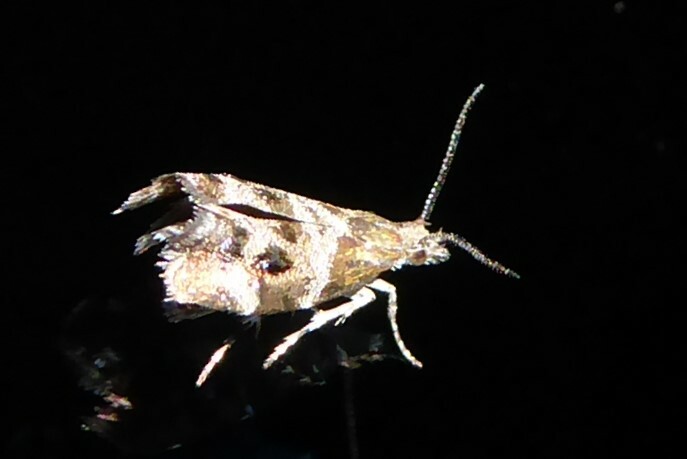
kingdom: Animalia
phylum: Arthropoda
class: Insecta
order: Lepidoptera
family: Choreutidae
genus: Tebenna
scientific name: Tebenna micalis
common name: Vagrant twitcher
